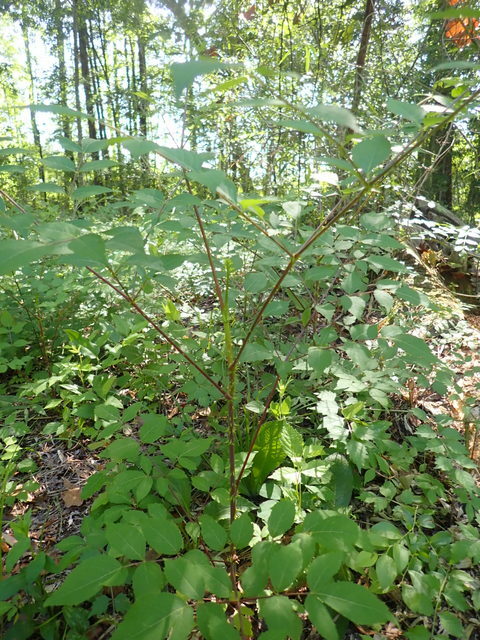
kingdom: Plantae
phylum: Tracheophyta
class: Magnoliopsida
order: Apiales
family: Araliaceae
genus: Aralia
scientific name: Aralia spinosa
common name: Hercules'-club
